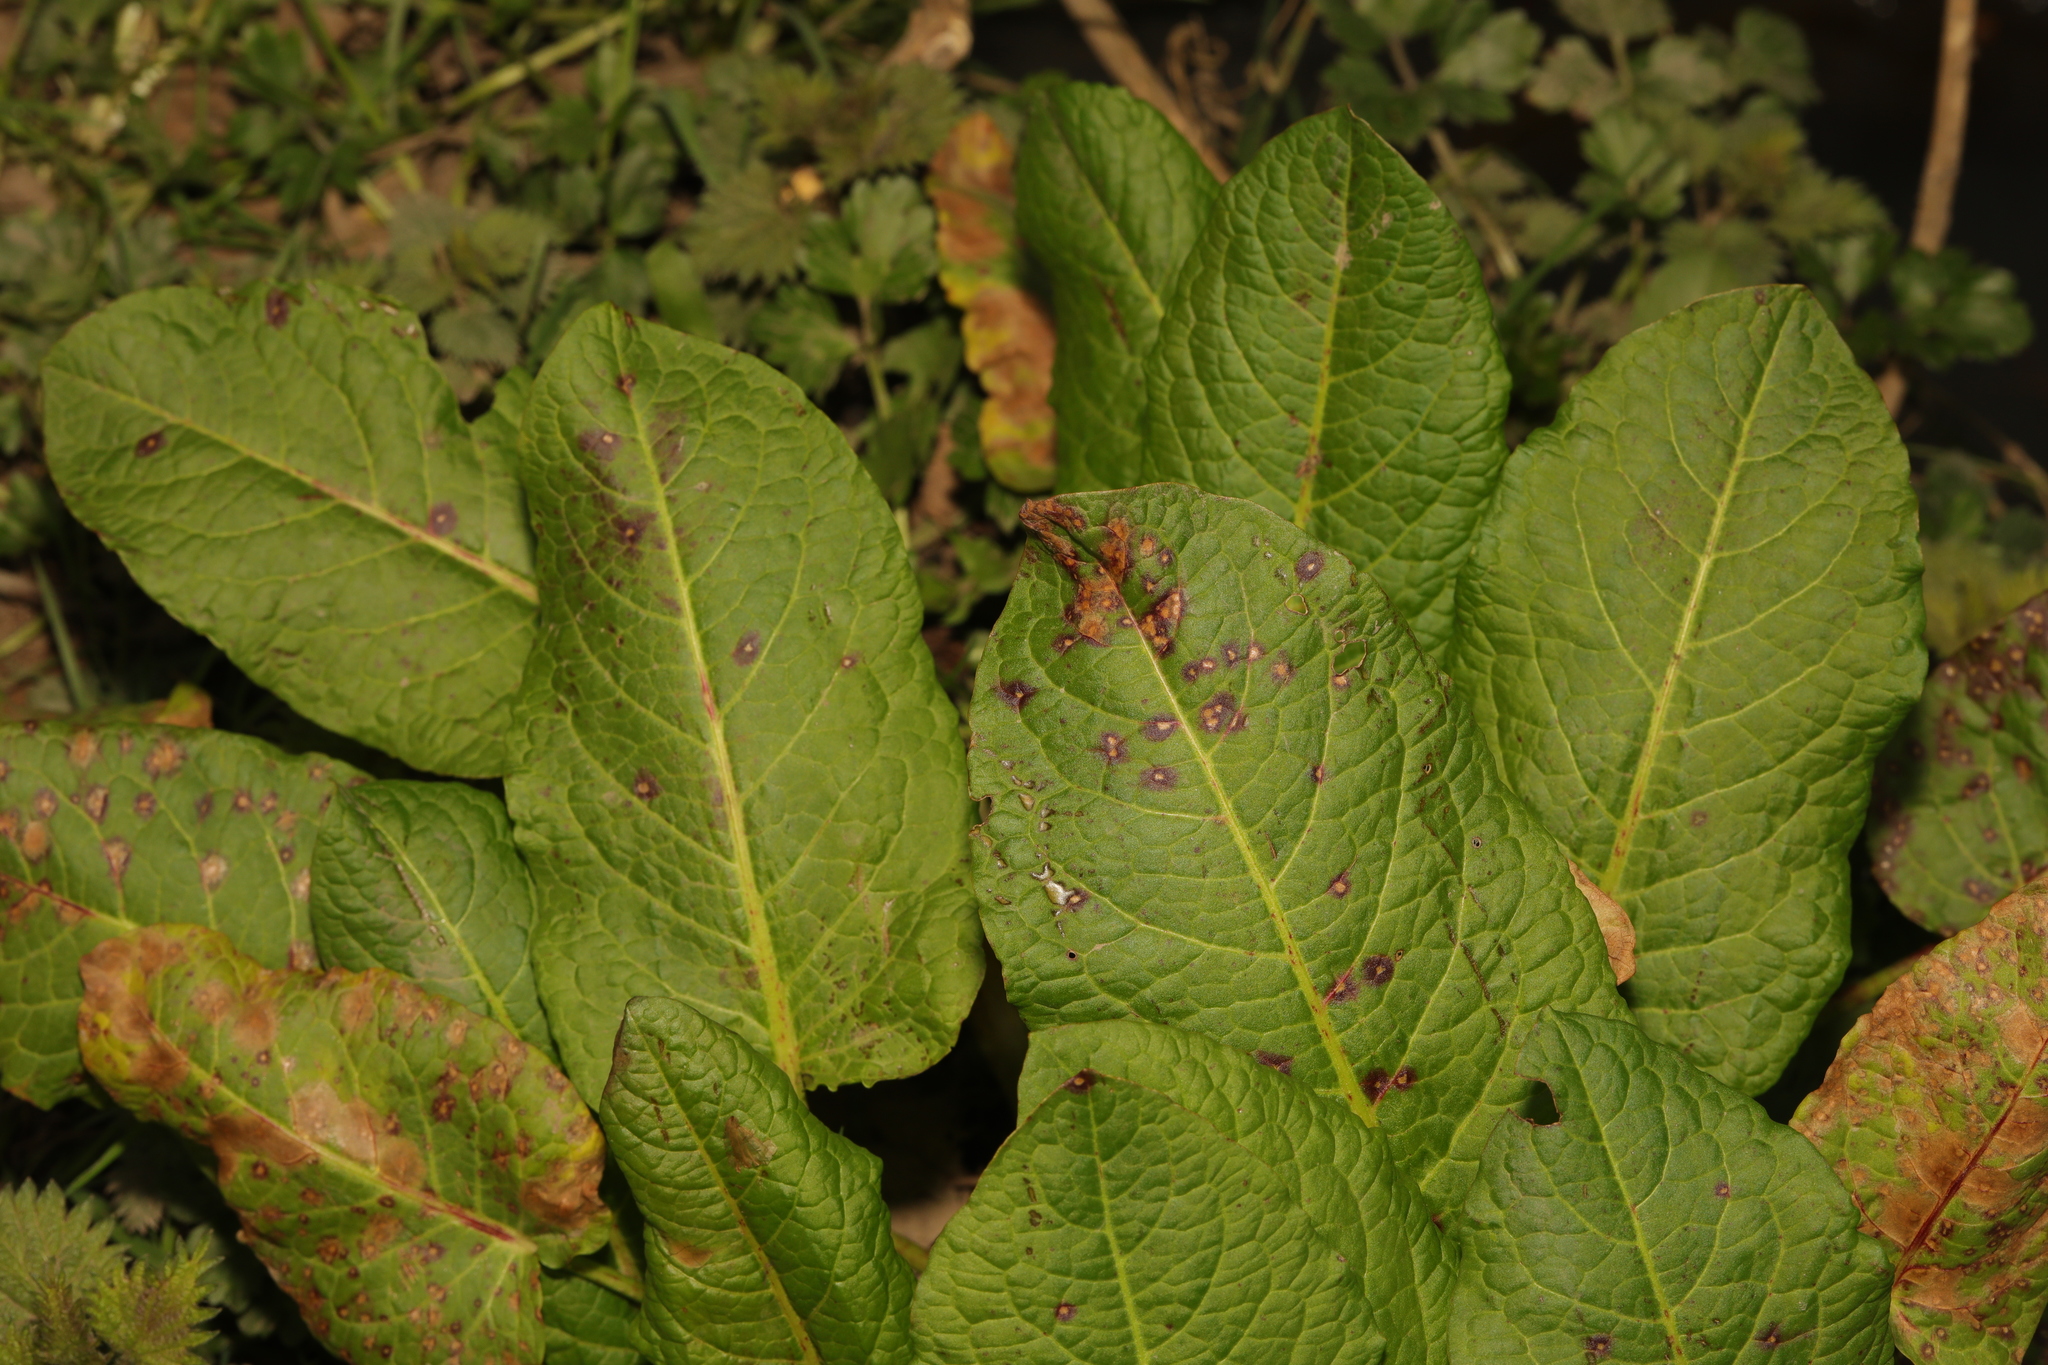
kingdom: Plantae
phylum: Tracheophyta
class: Magnoliopsida
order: Caryophyllales
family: Polygonaceae
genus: Rumex
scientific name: Rumex obtusifolius
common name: Bitter dock
